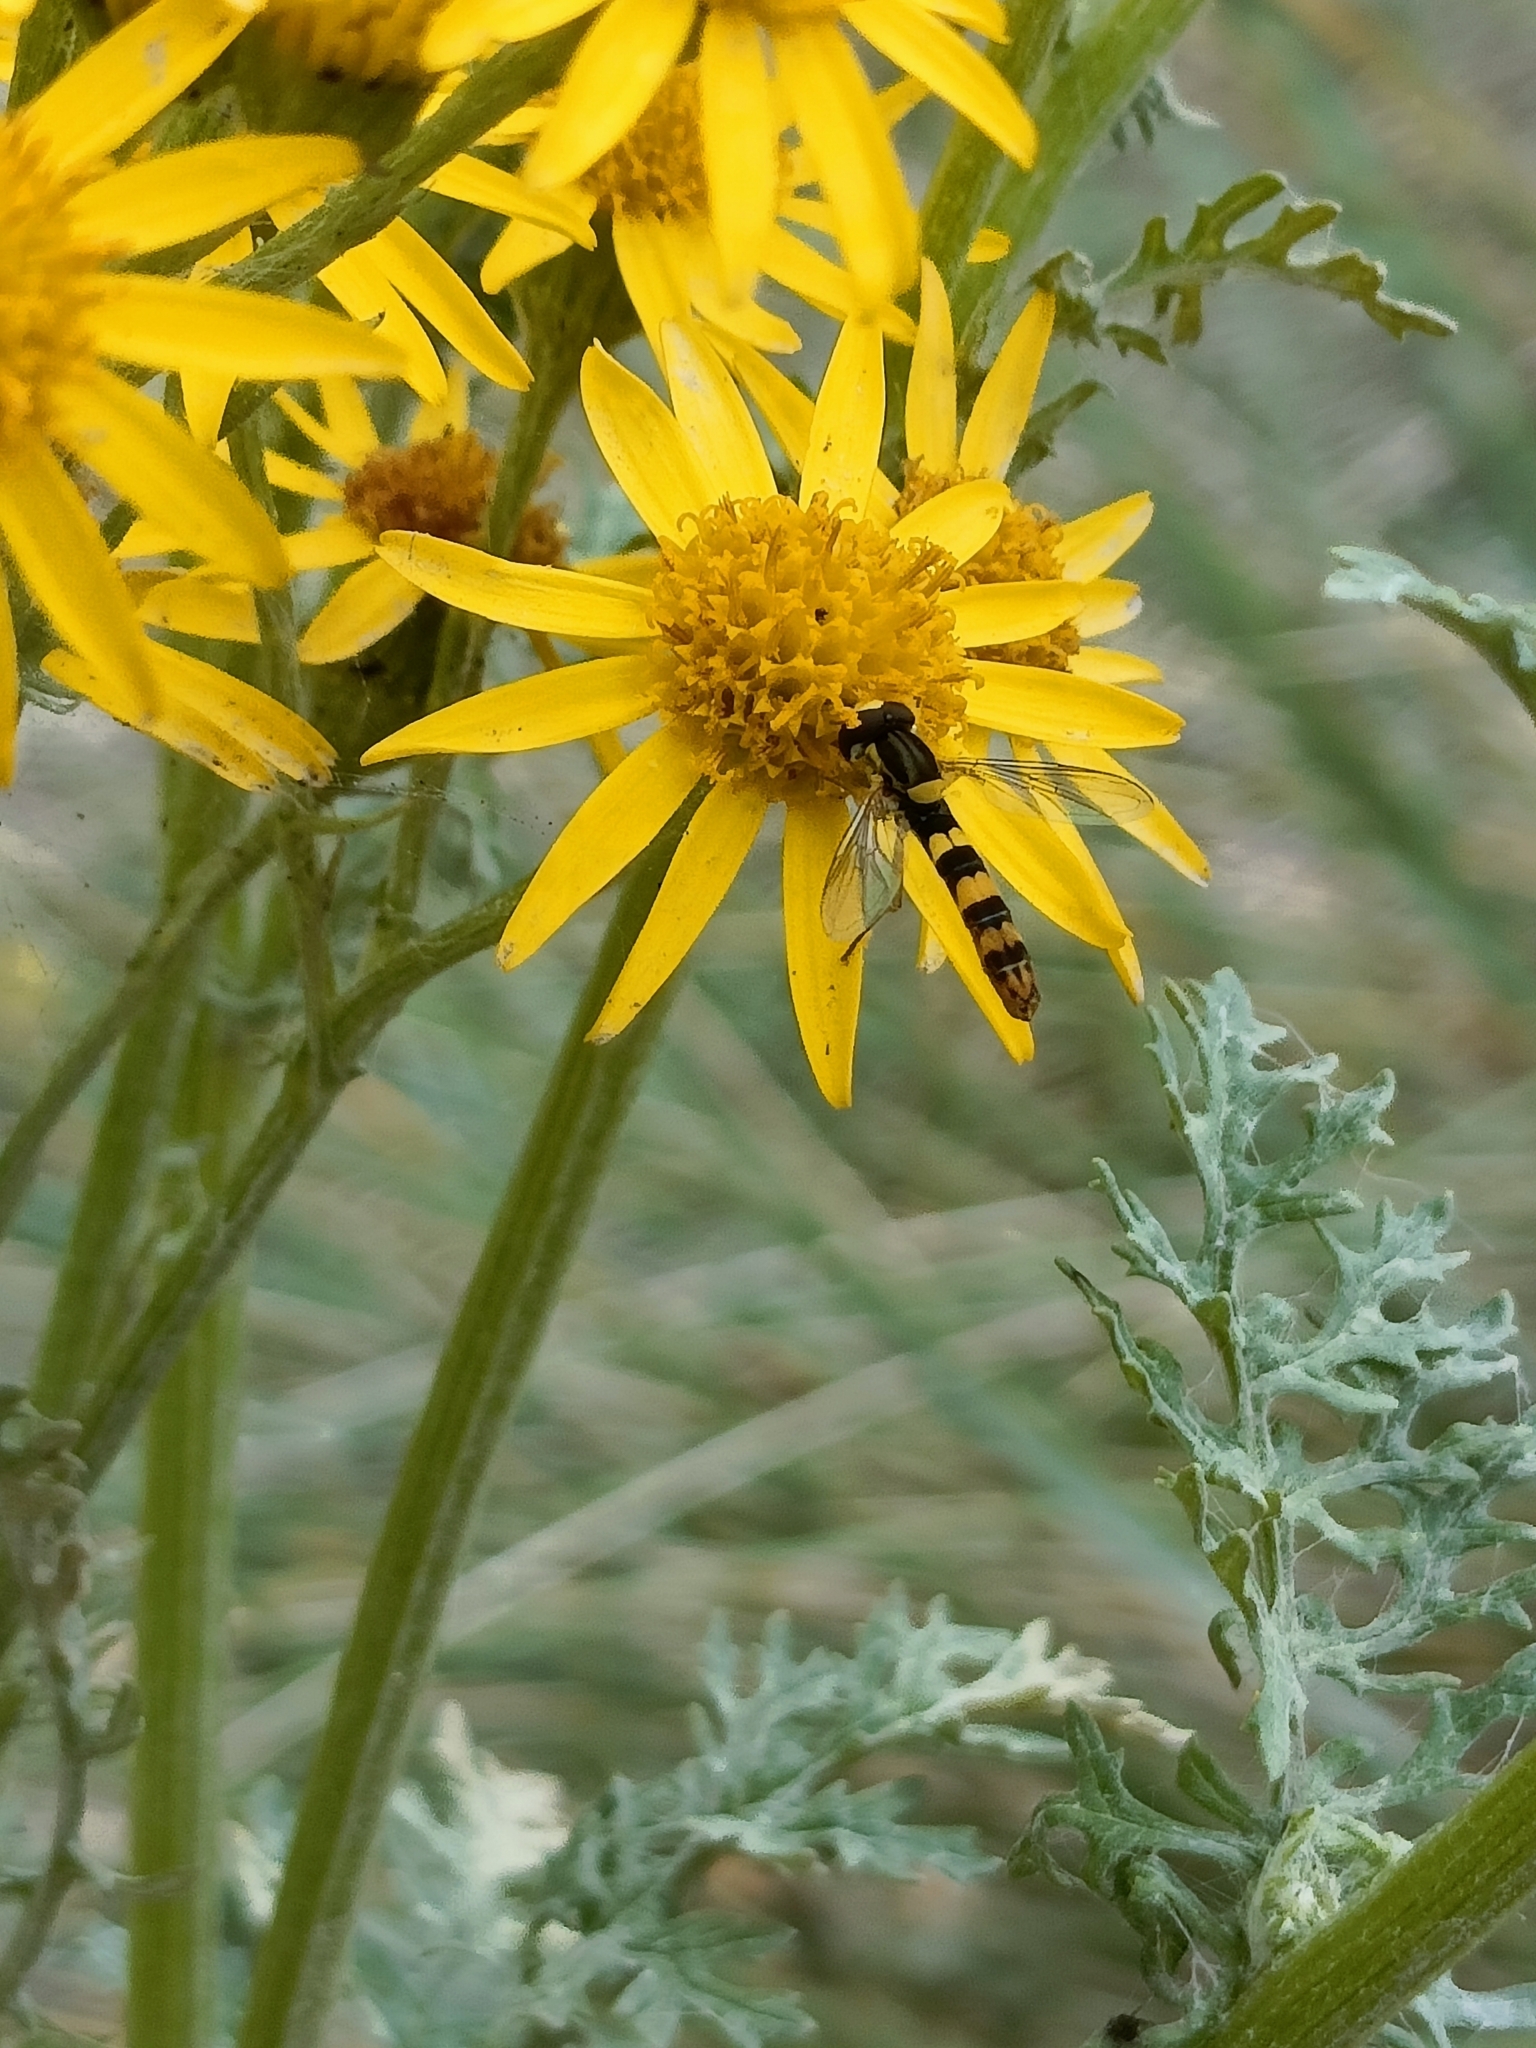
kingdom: Animalia
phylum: Arthropoda
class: Insecta
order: Diptera
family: Syrphidae
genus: Sphaerophoria
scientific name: Sphaerophoria scripta
